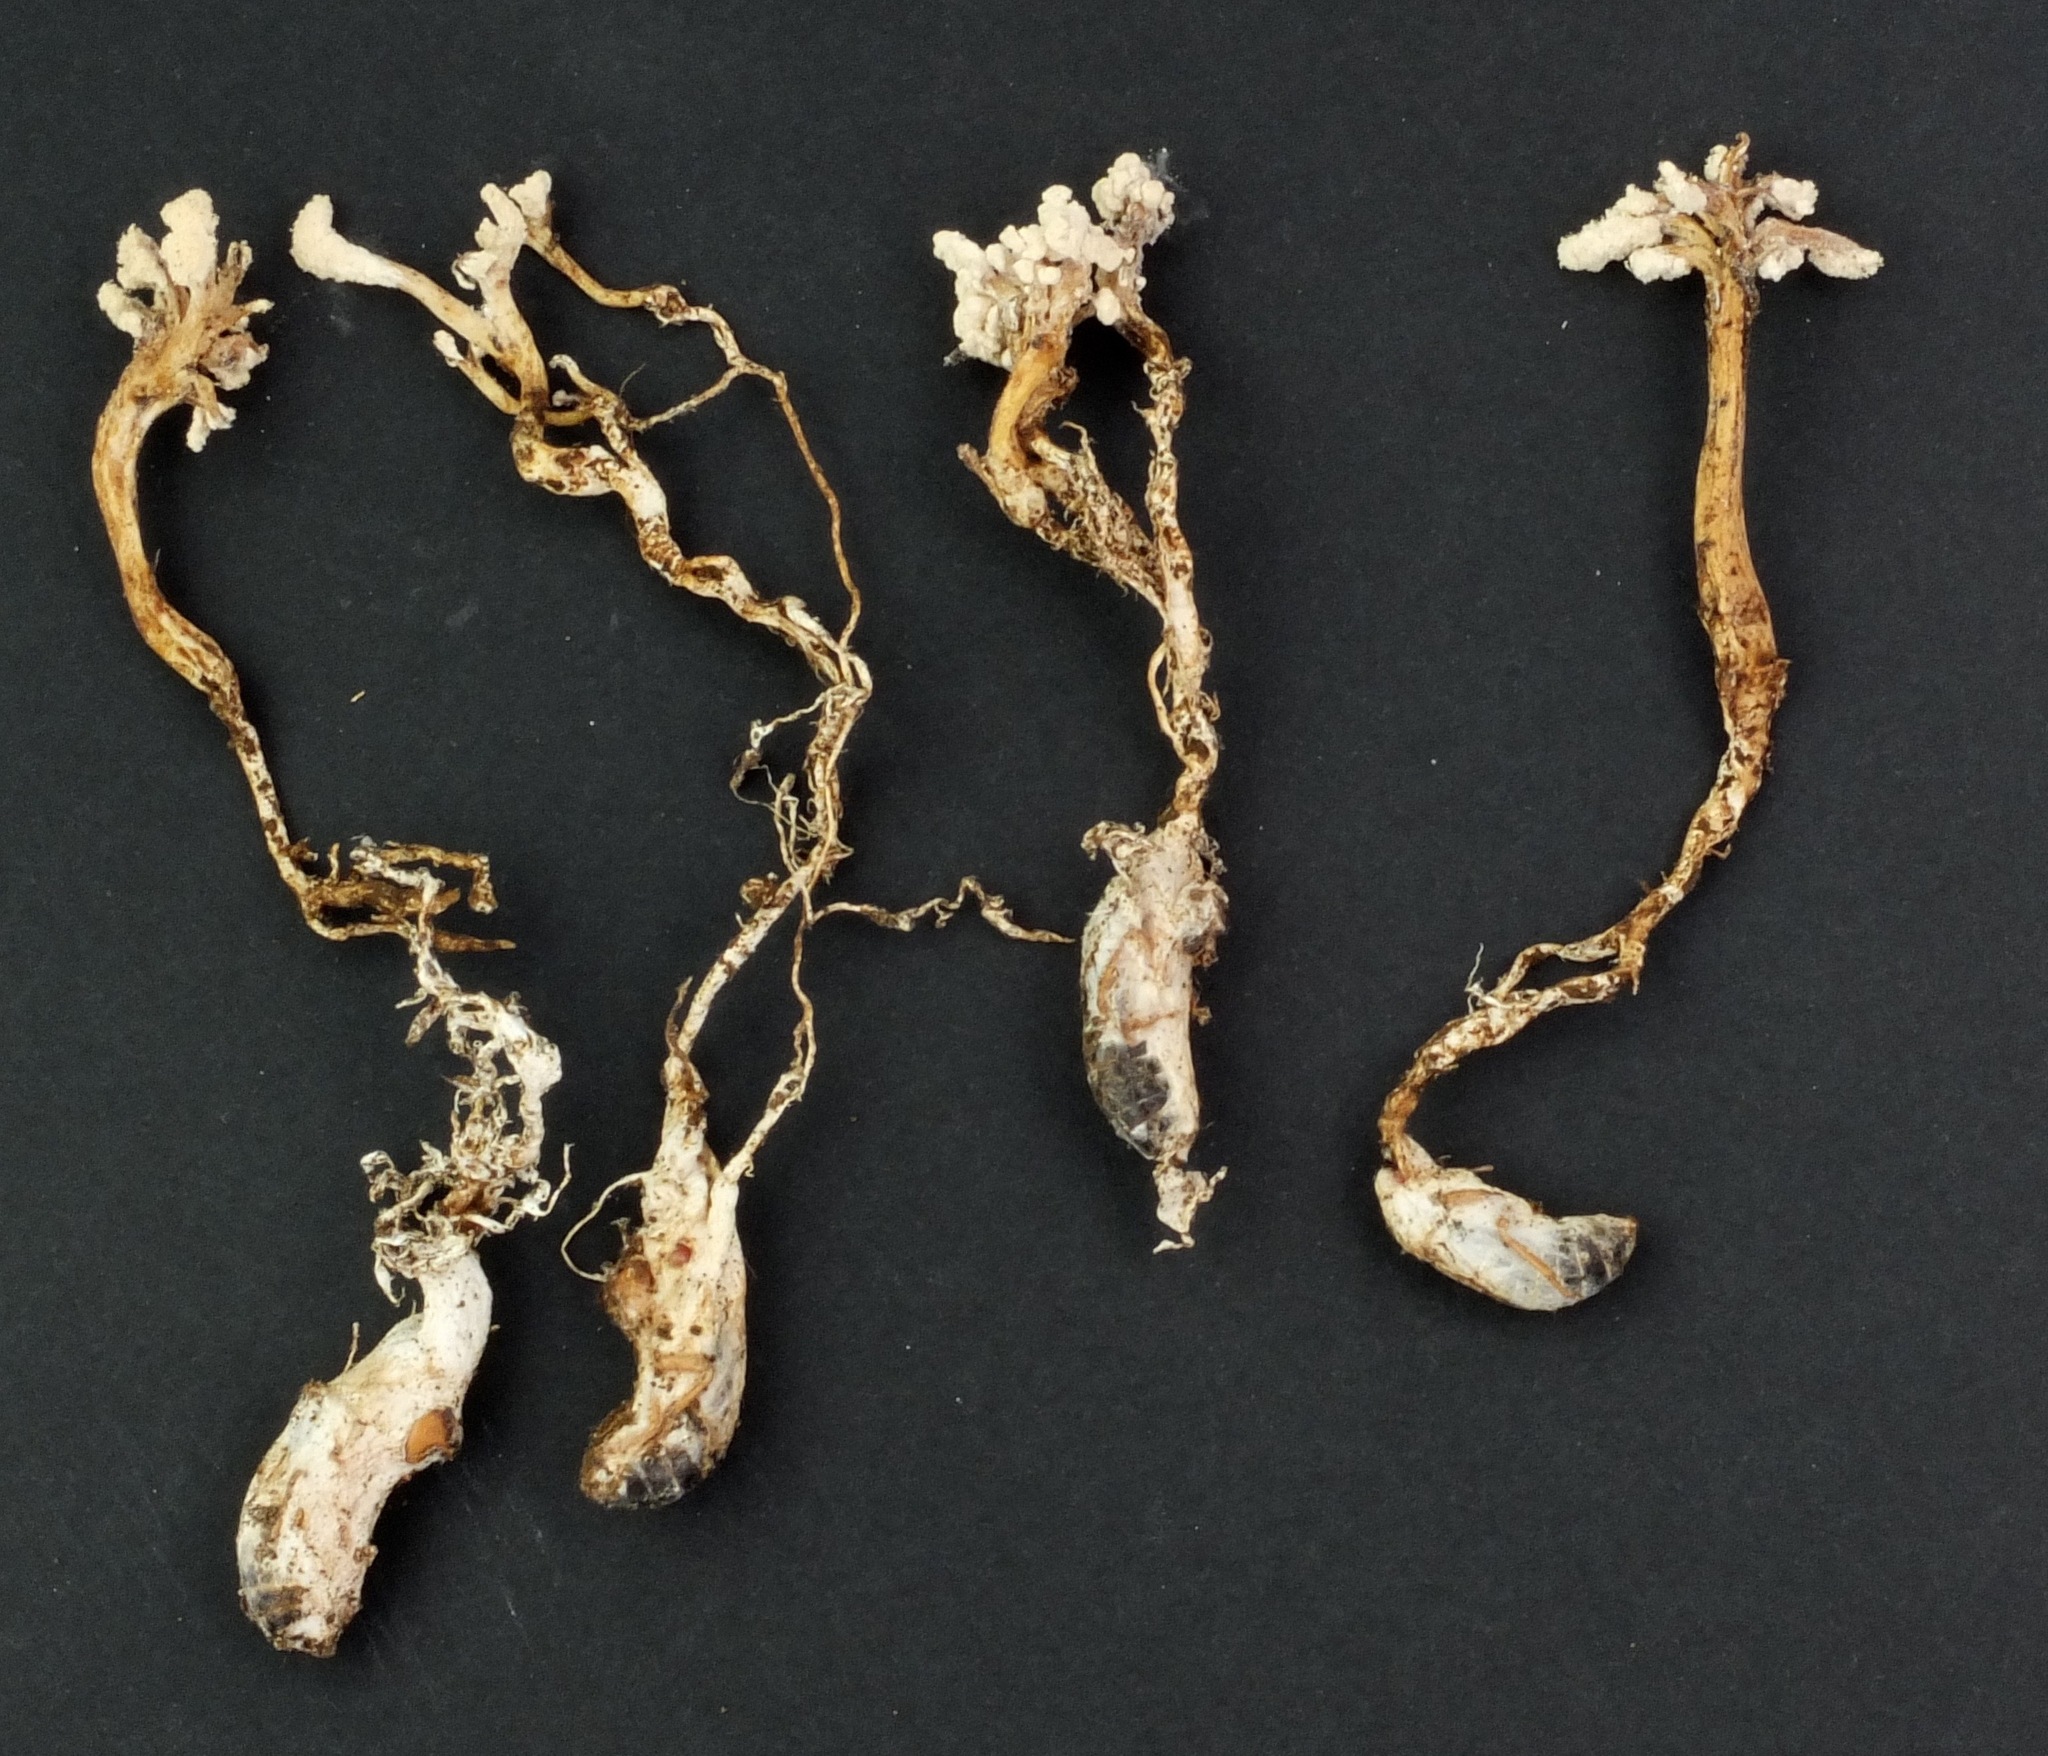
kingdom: Fungi
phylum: Ascomycota
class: Sordariomycetes
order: Hypocreales
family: Cordycipitaceae
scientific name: Cordycipitaceae
